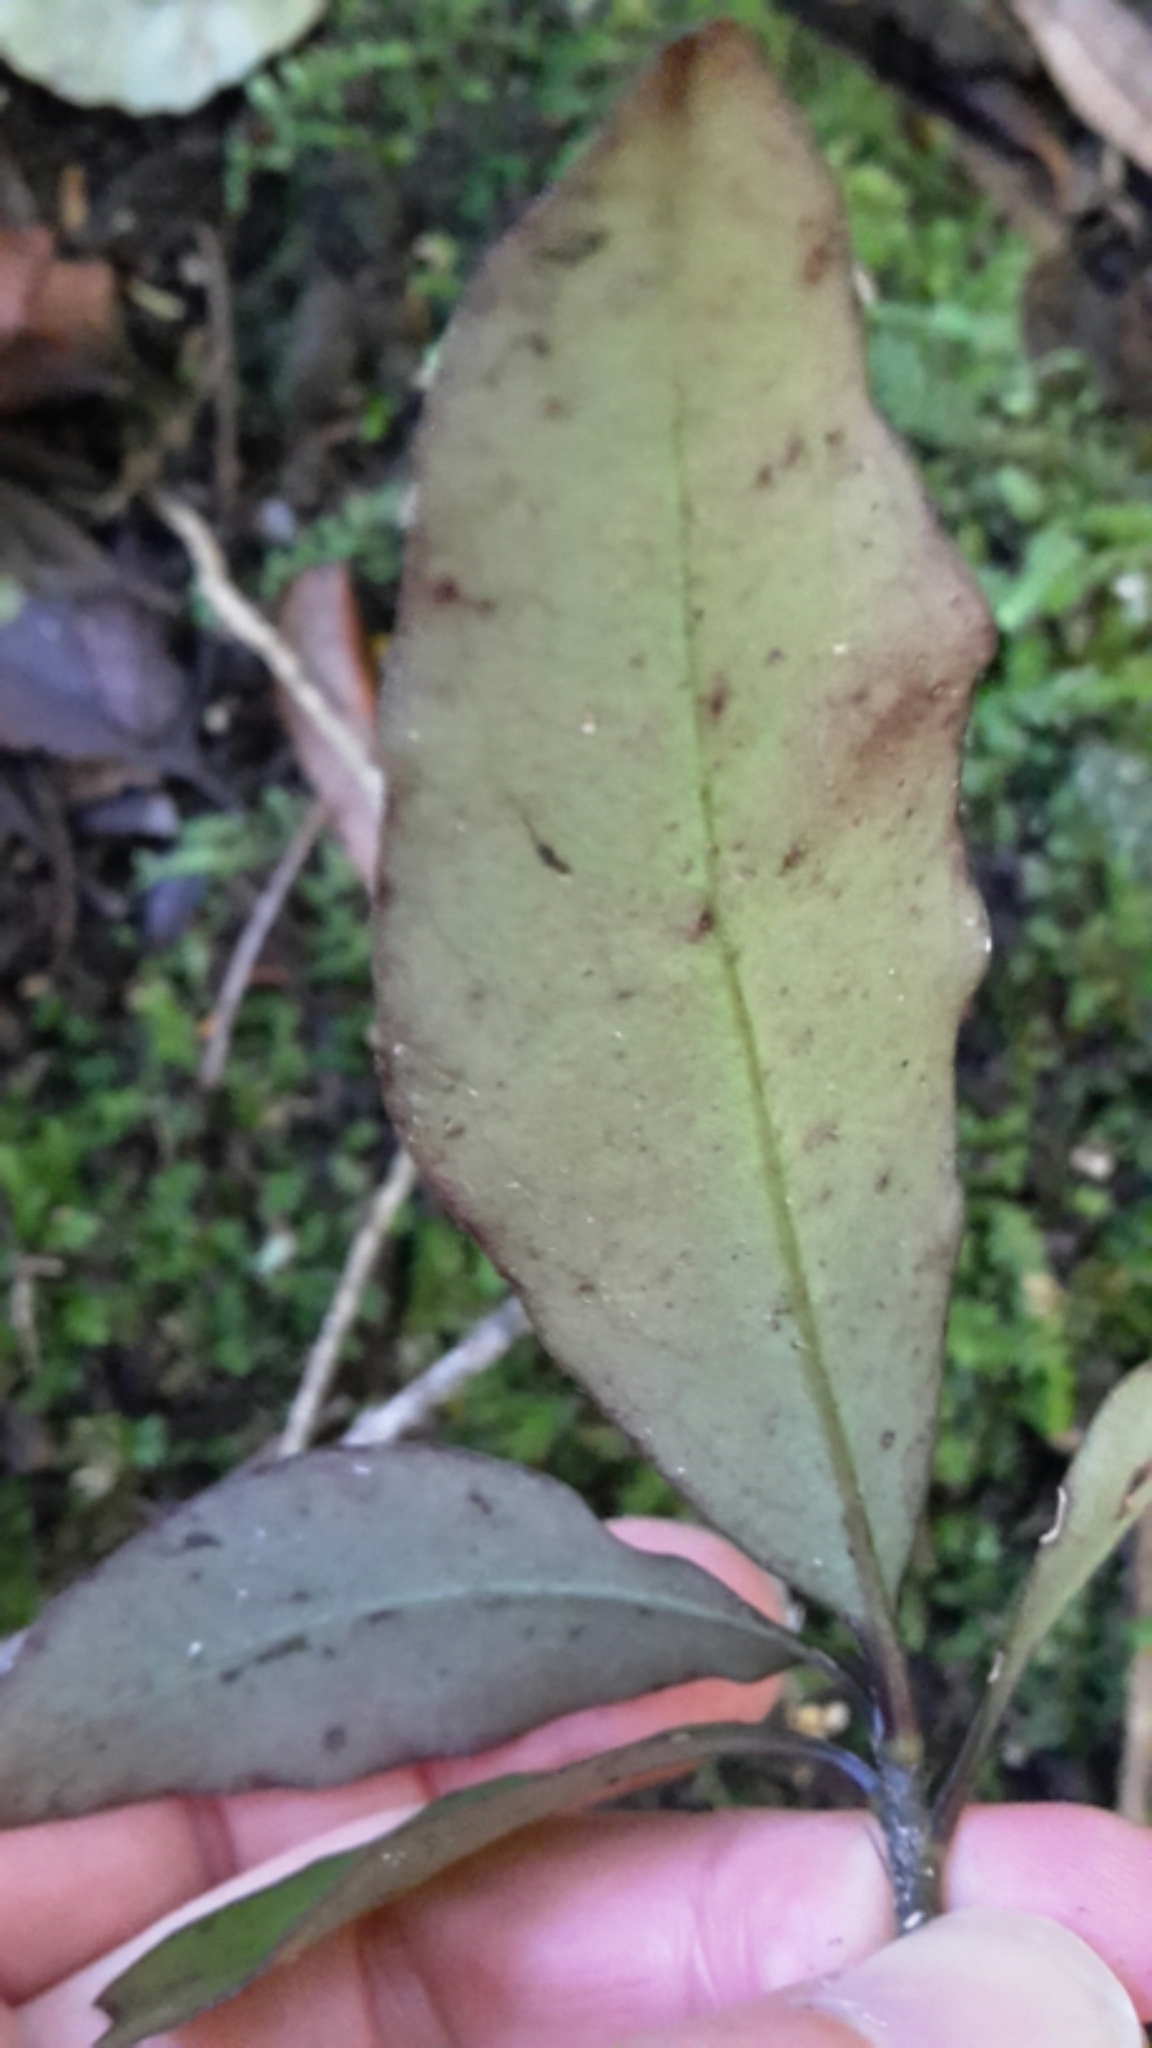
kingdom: Plantae
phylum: Tracheophyta
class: Magnoliopsida
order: Asterales
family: Alseuosmiaceae
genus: Alseuosmia
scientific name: Alseuosmia pusilla
